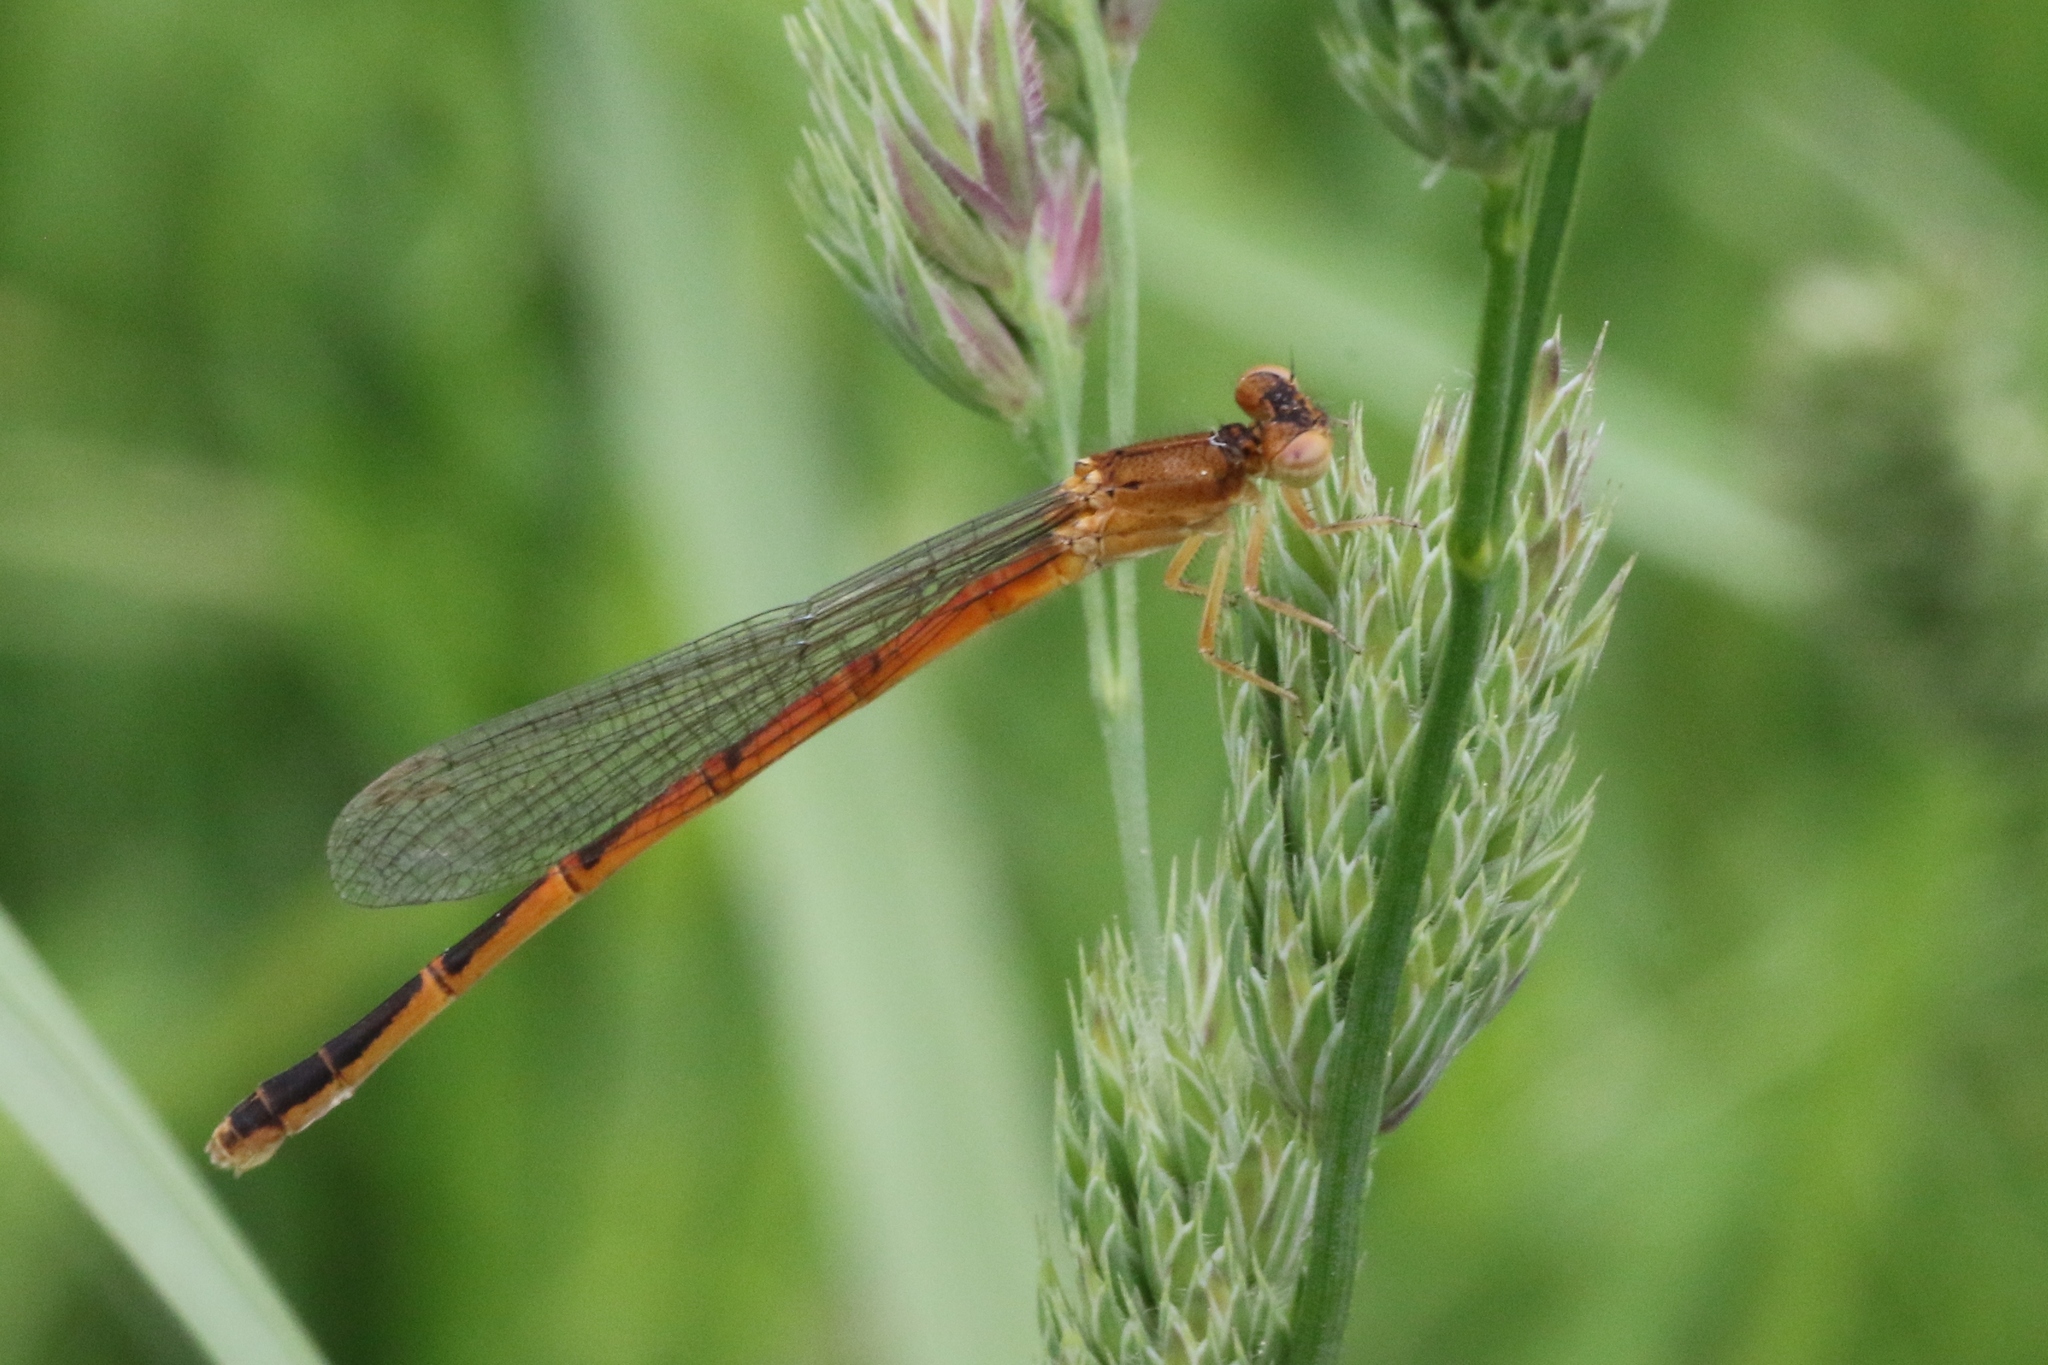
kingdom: Animalia
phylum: Arthropoda
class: Insecta
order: Odonata
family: Coenagrionidae
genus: Amphiagrion
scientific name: Amphiagrion saucium
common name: Eastern red damsel
